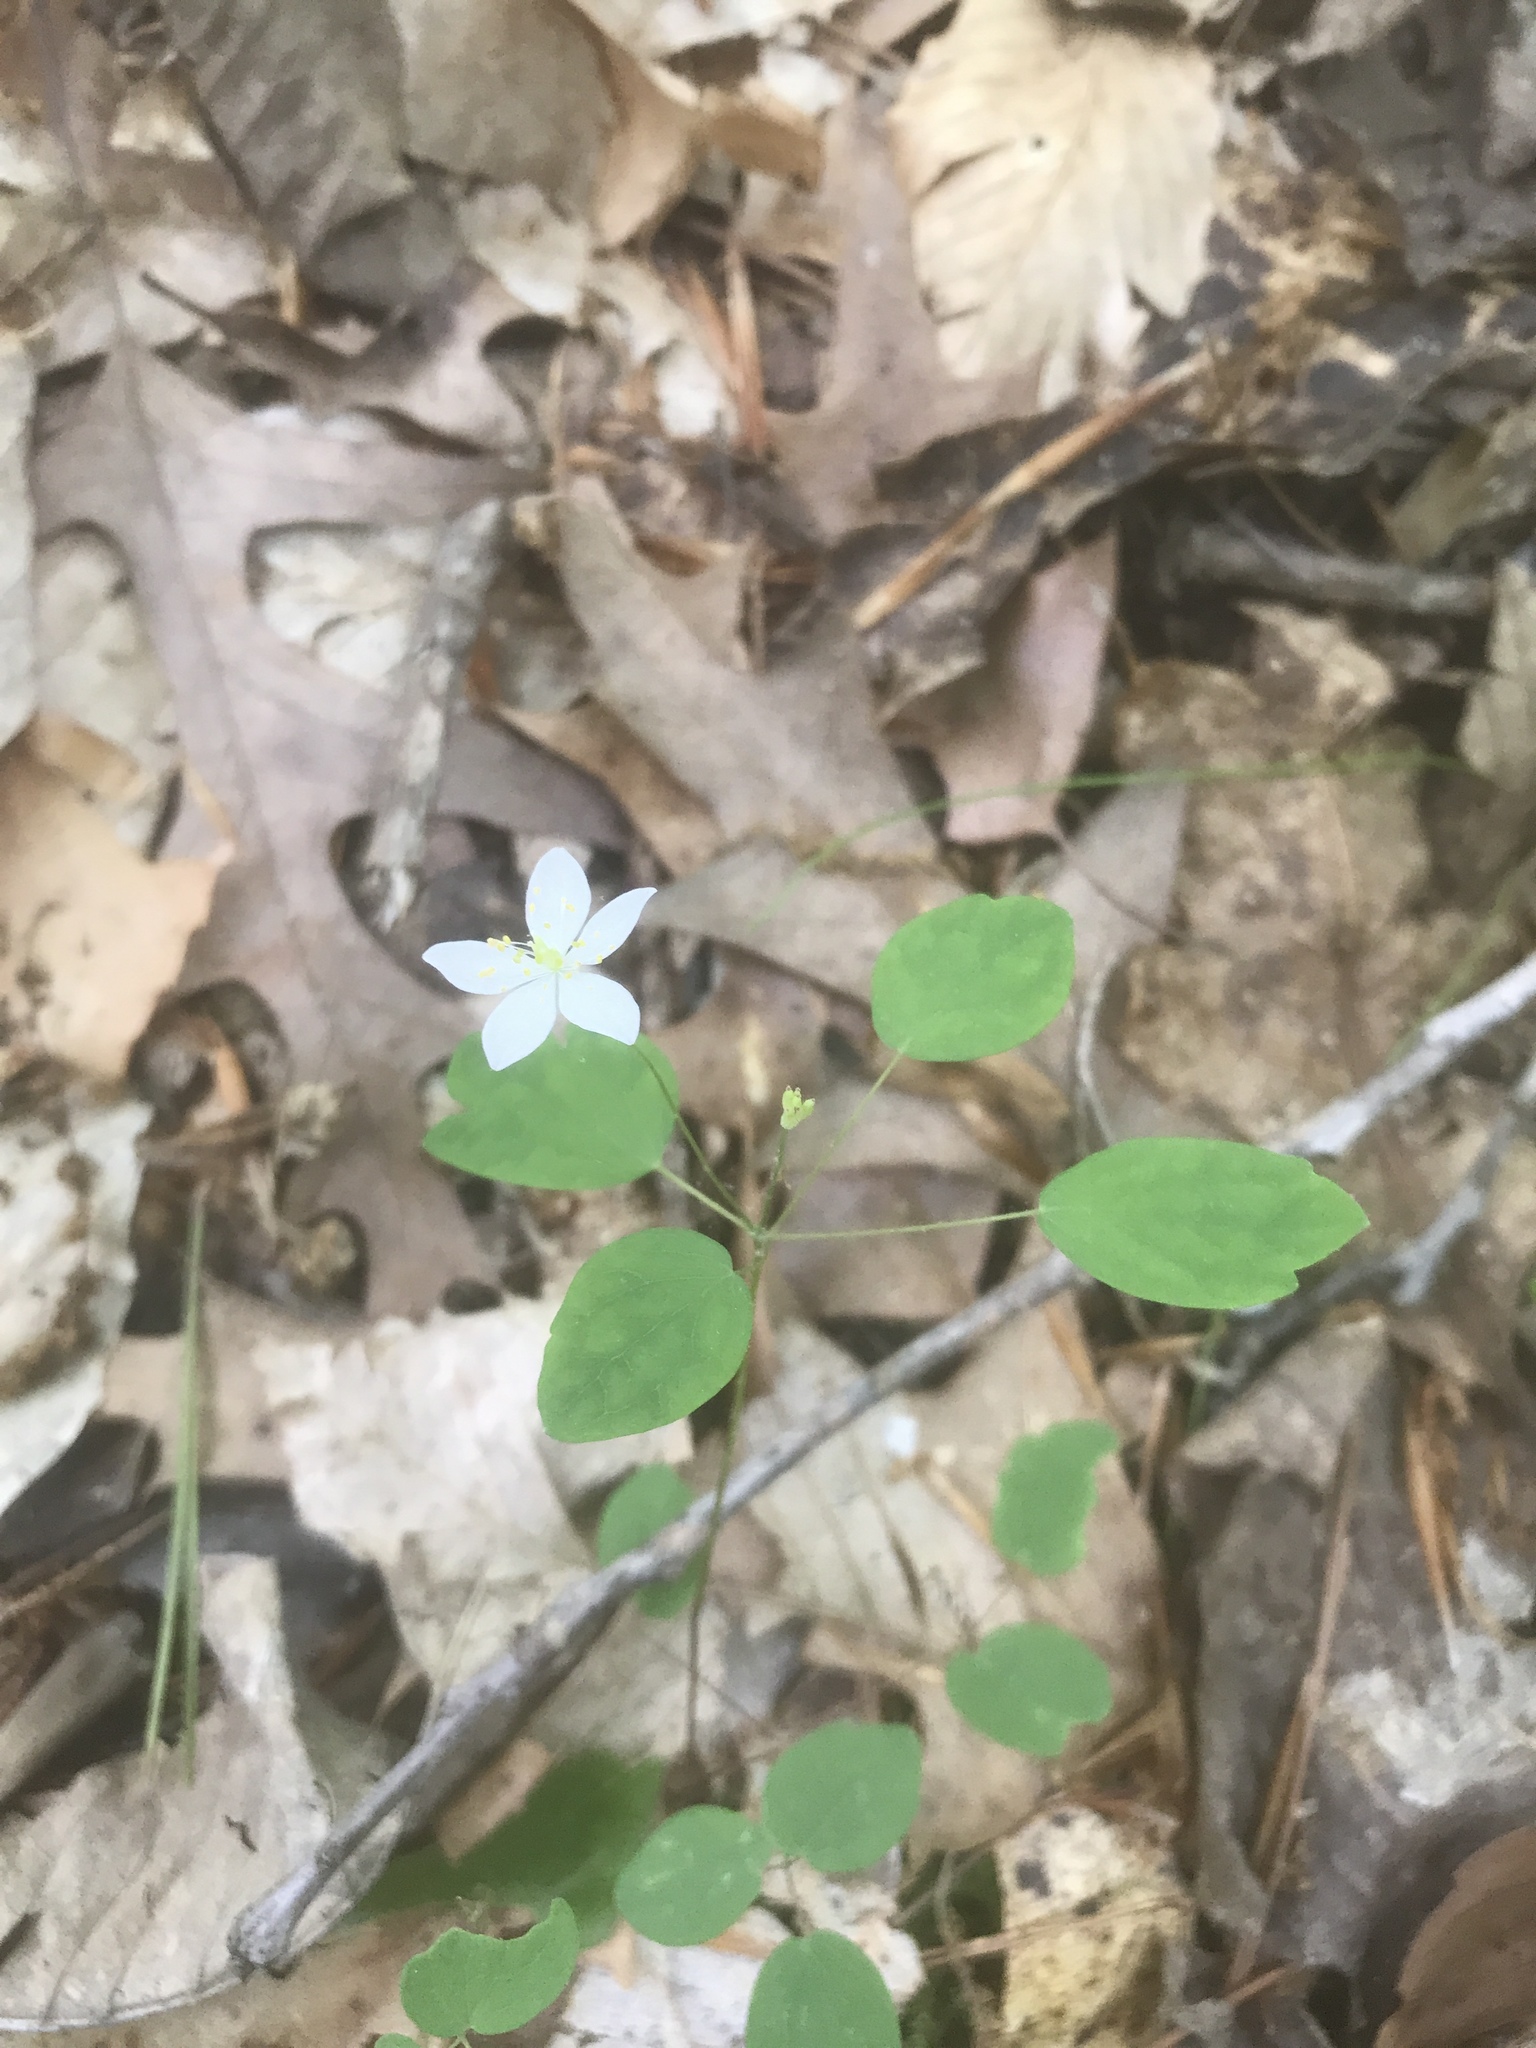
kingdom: Plantae
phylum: Tracheophyta
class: Magnoliopsida
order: Ranunculales
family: Ranunculaceae
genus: Thalictrum
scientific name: Thalictrum thalictroides
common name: Rue-anemone
